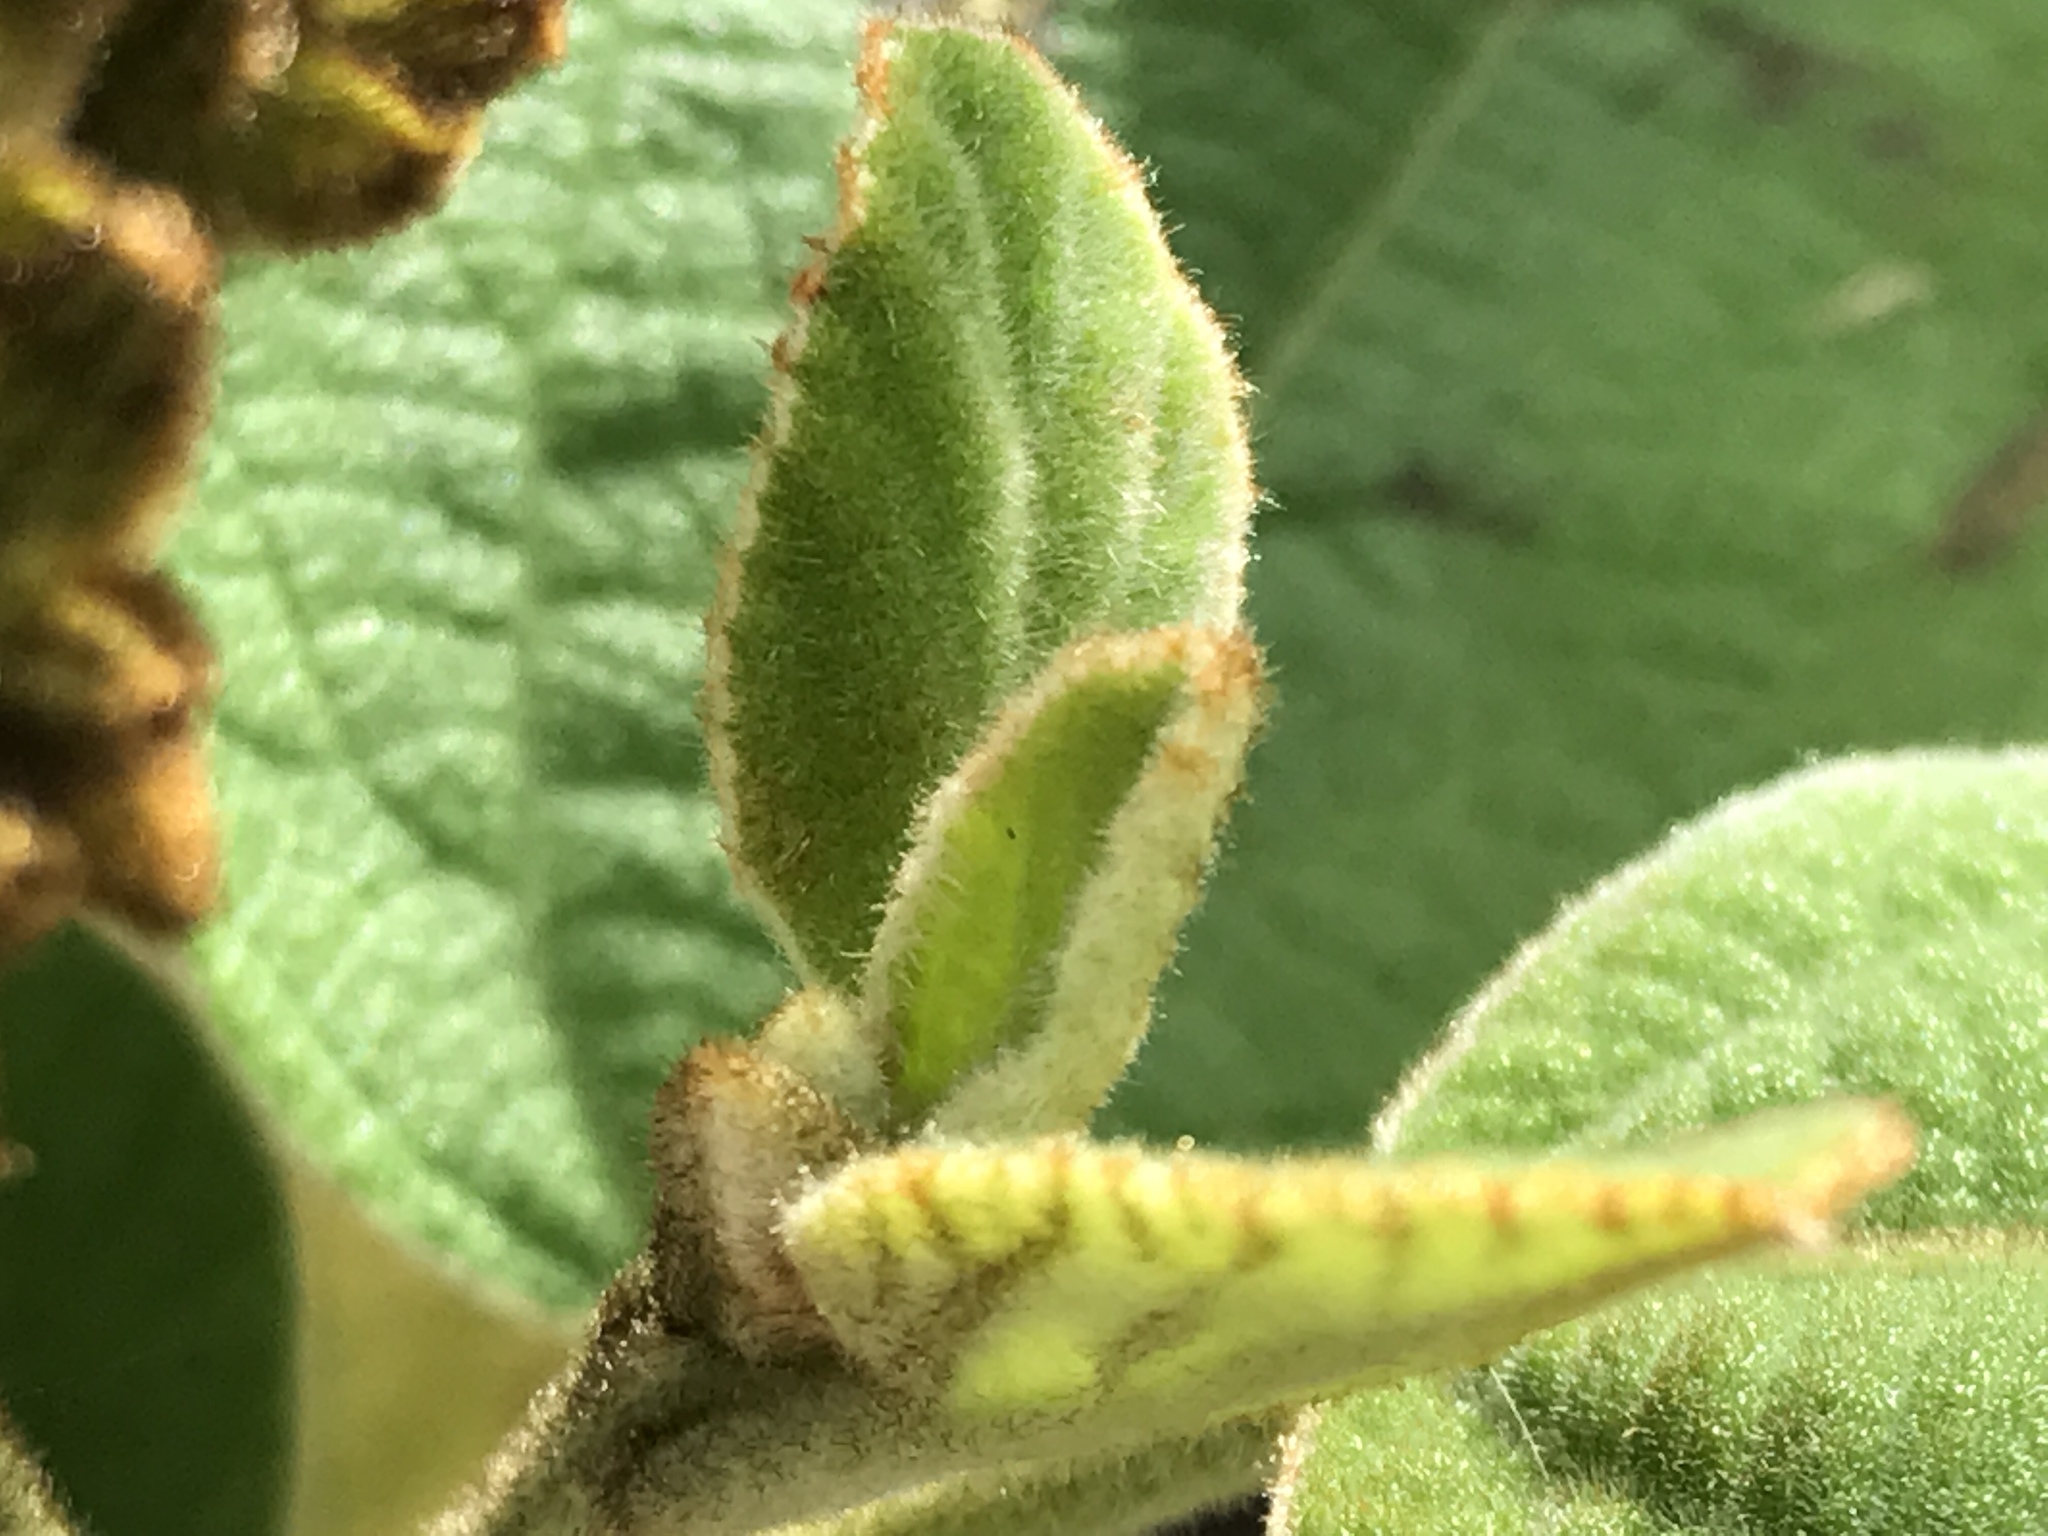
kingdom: Plantae
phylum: Tracheophyta
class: Magnoliopsida
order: Boraginales
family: Cordiaceae
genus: Cordia
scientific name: Cordia boissieri
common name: Mexican-olive
